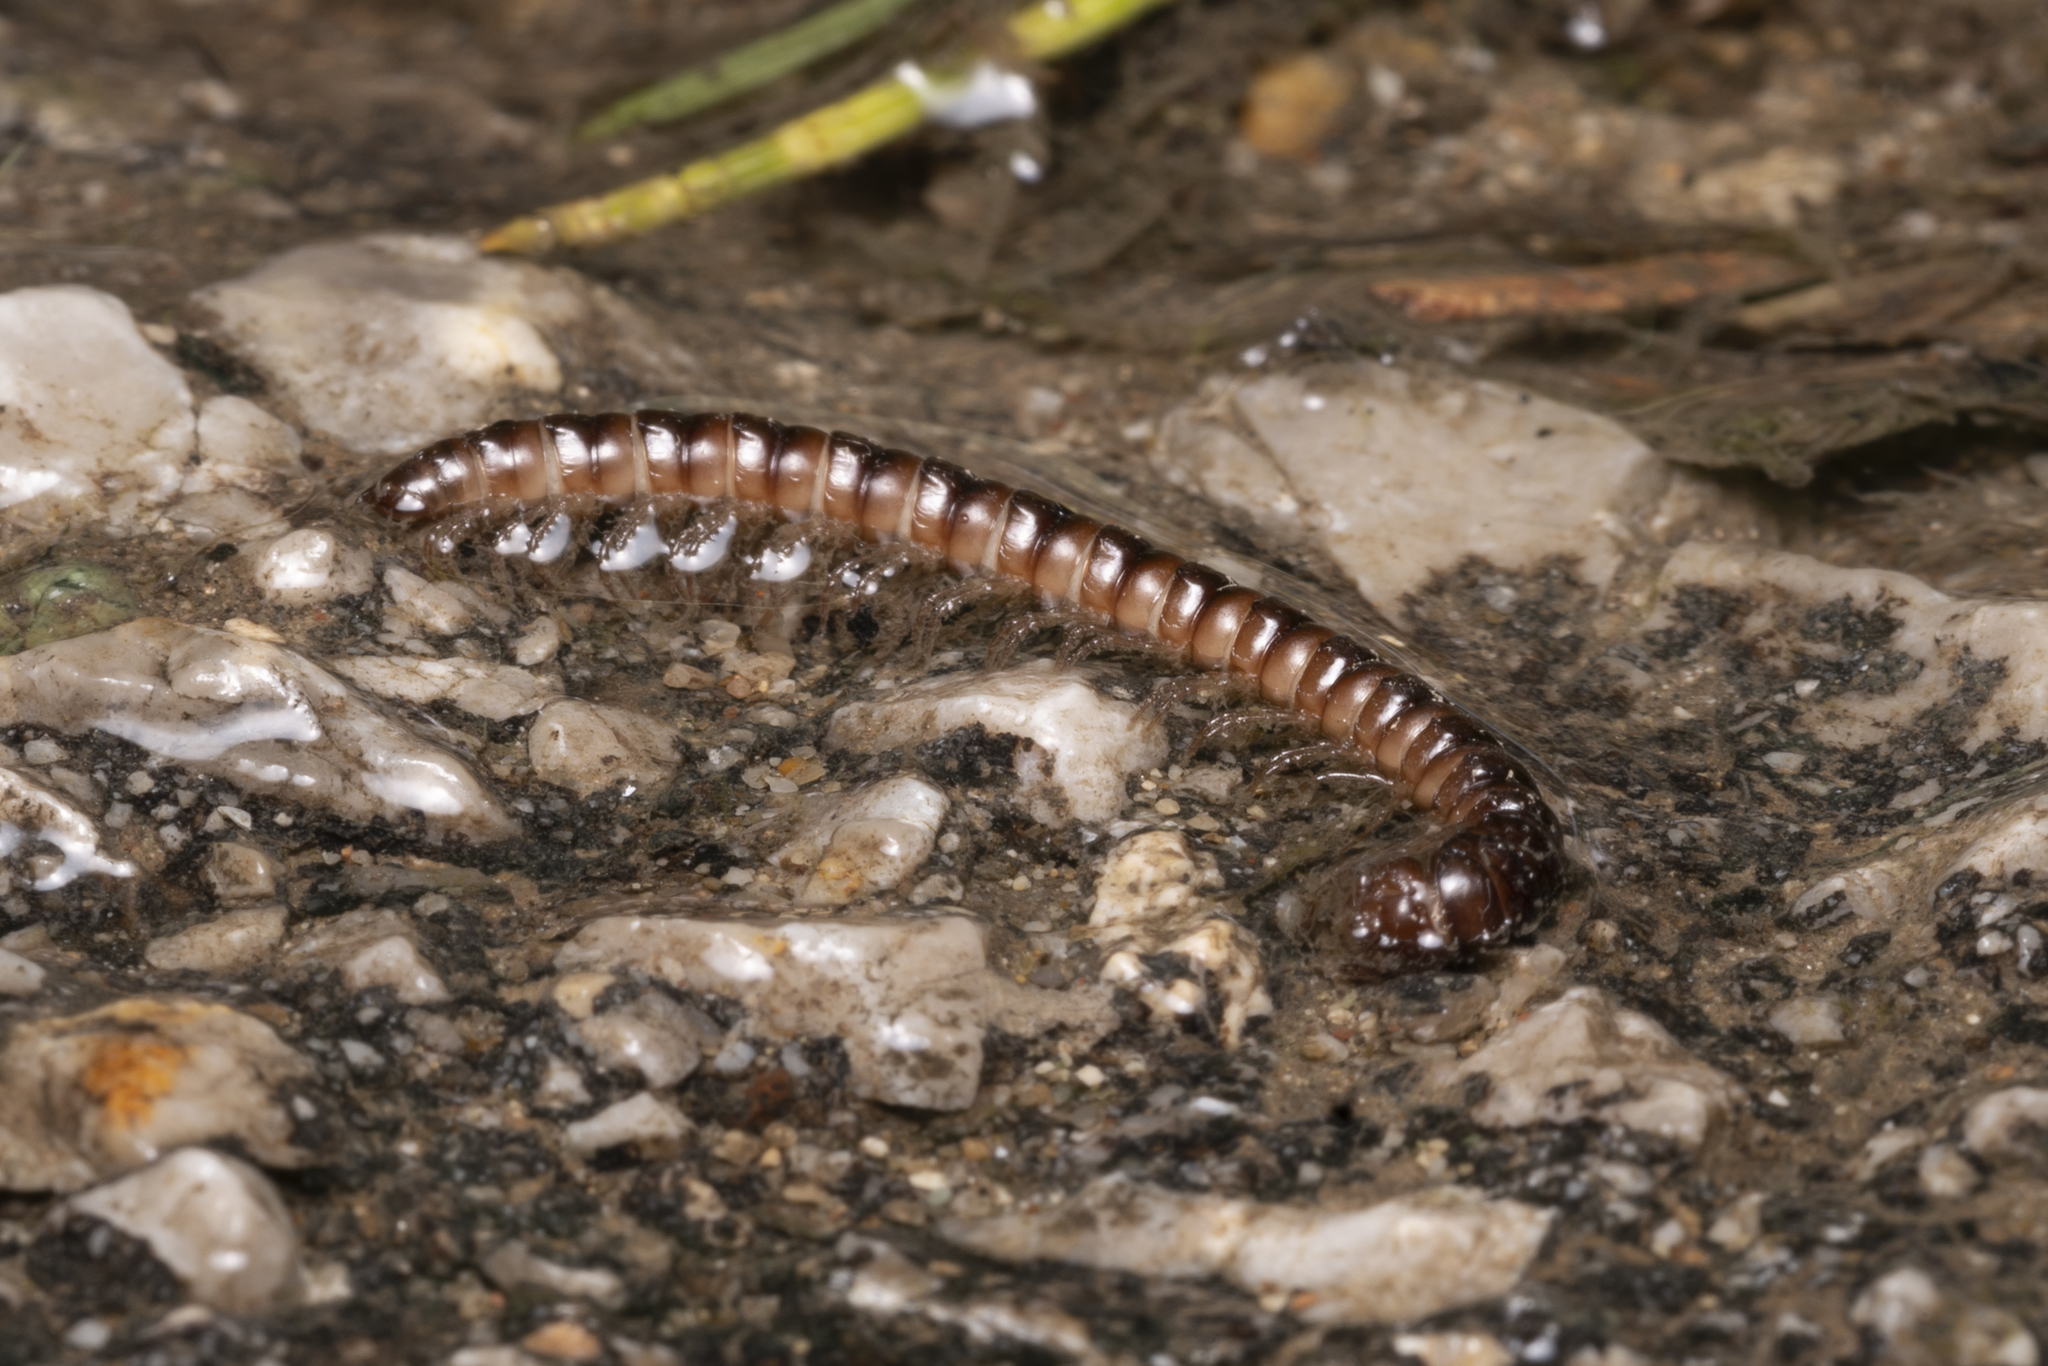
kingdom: Animalia
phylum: Arthropoda
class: Diplopoda
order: Polydesmida
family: Paradoxosomatidae
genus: Tetrarthrosoma
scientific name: Tetrarthrosoma pallidicephalum
